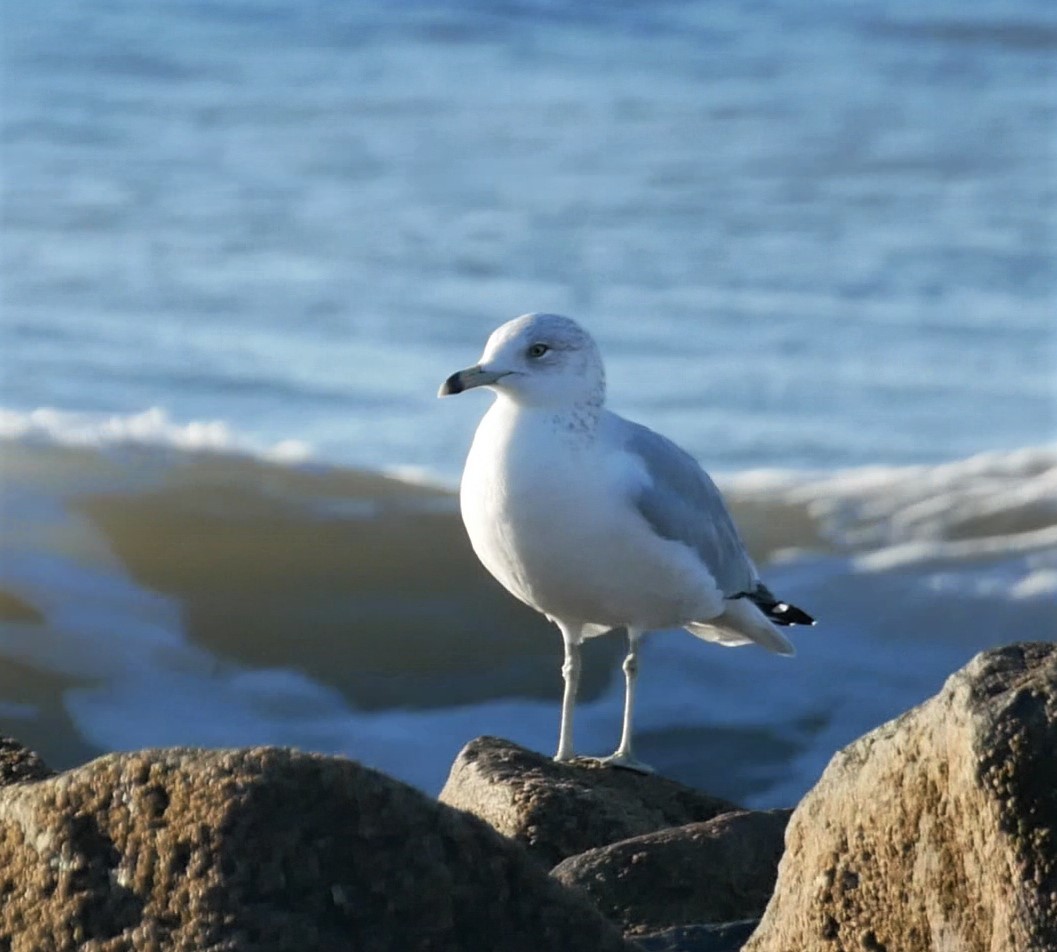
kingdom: Animalia
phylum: Chordata
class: Aves
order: Charadriiformes
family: Laridae
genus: Larus
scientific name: Larus delawarensis
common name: Ring-billed gull
